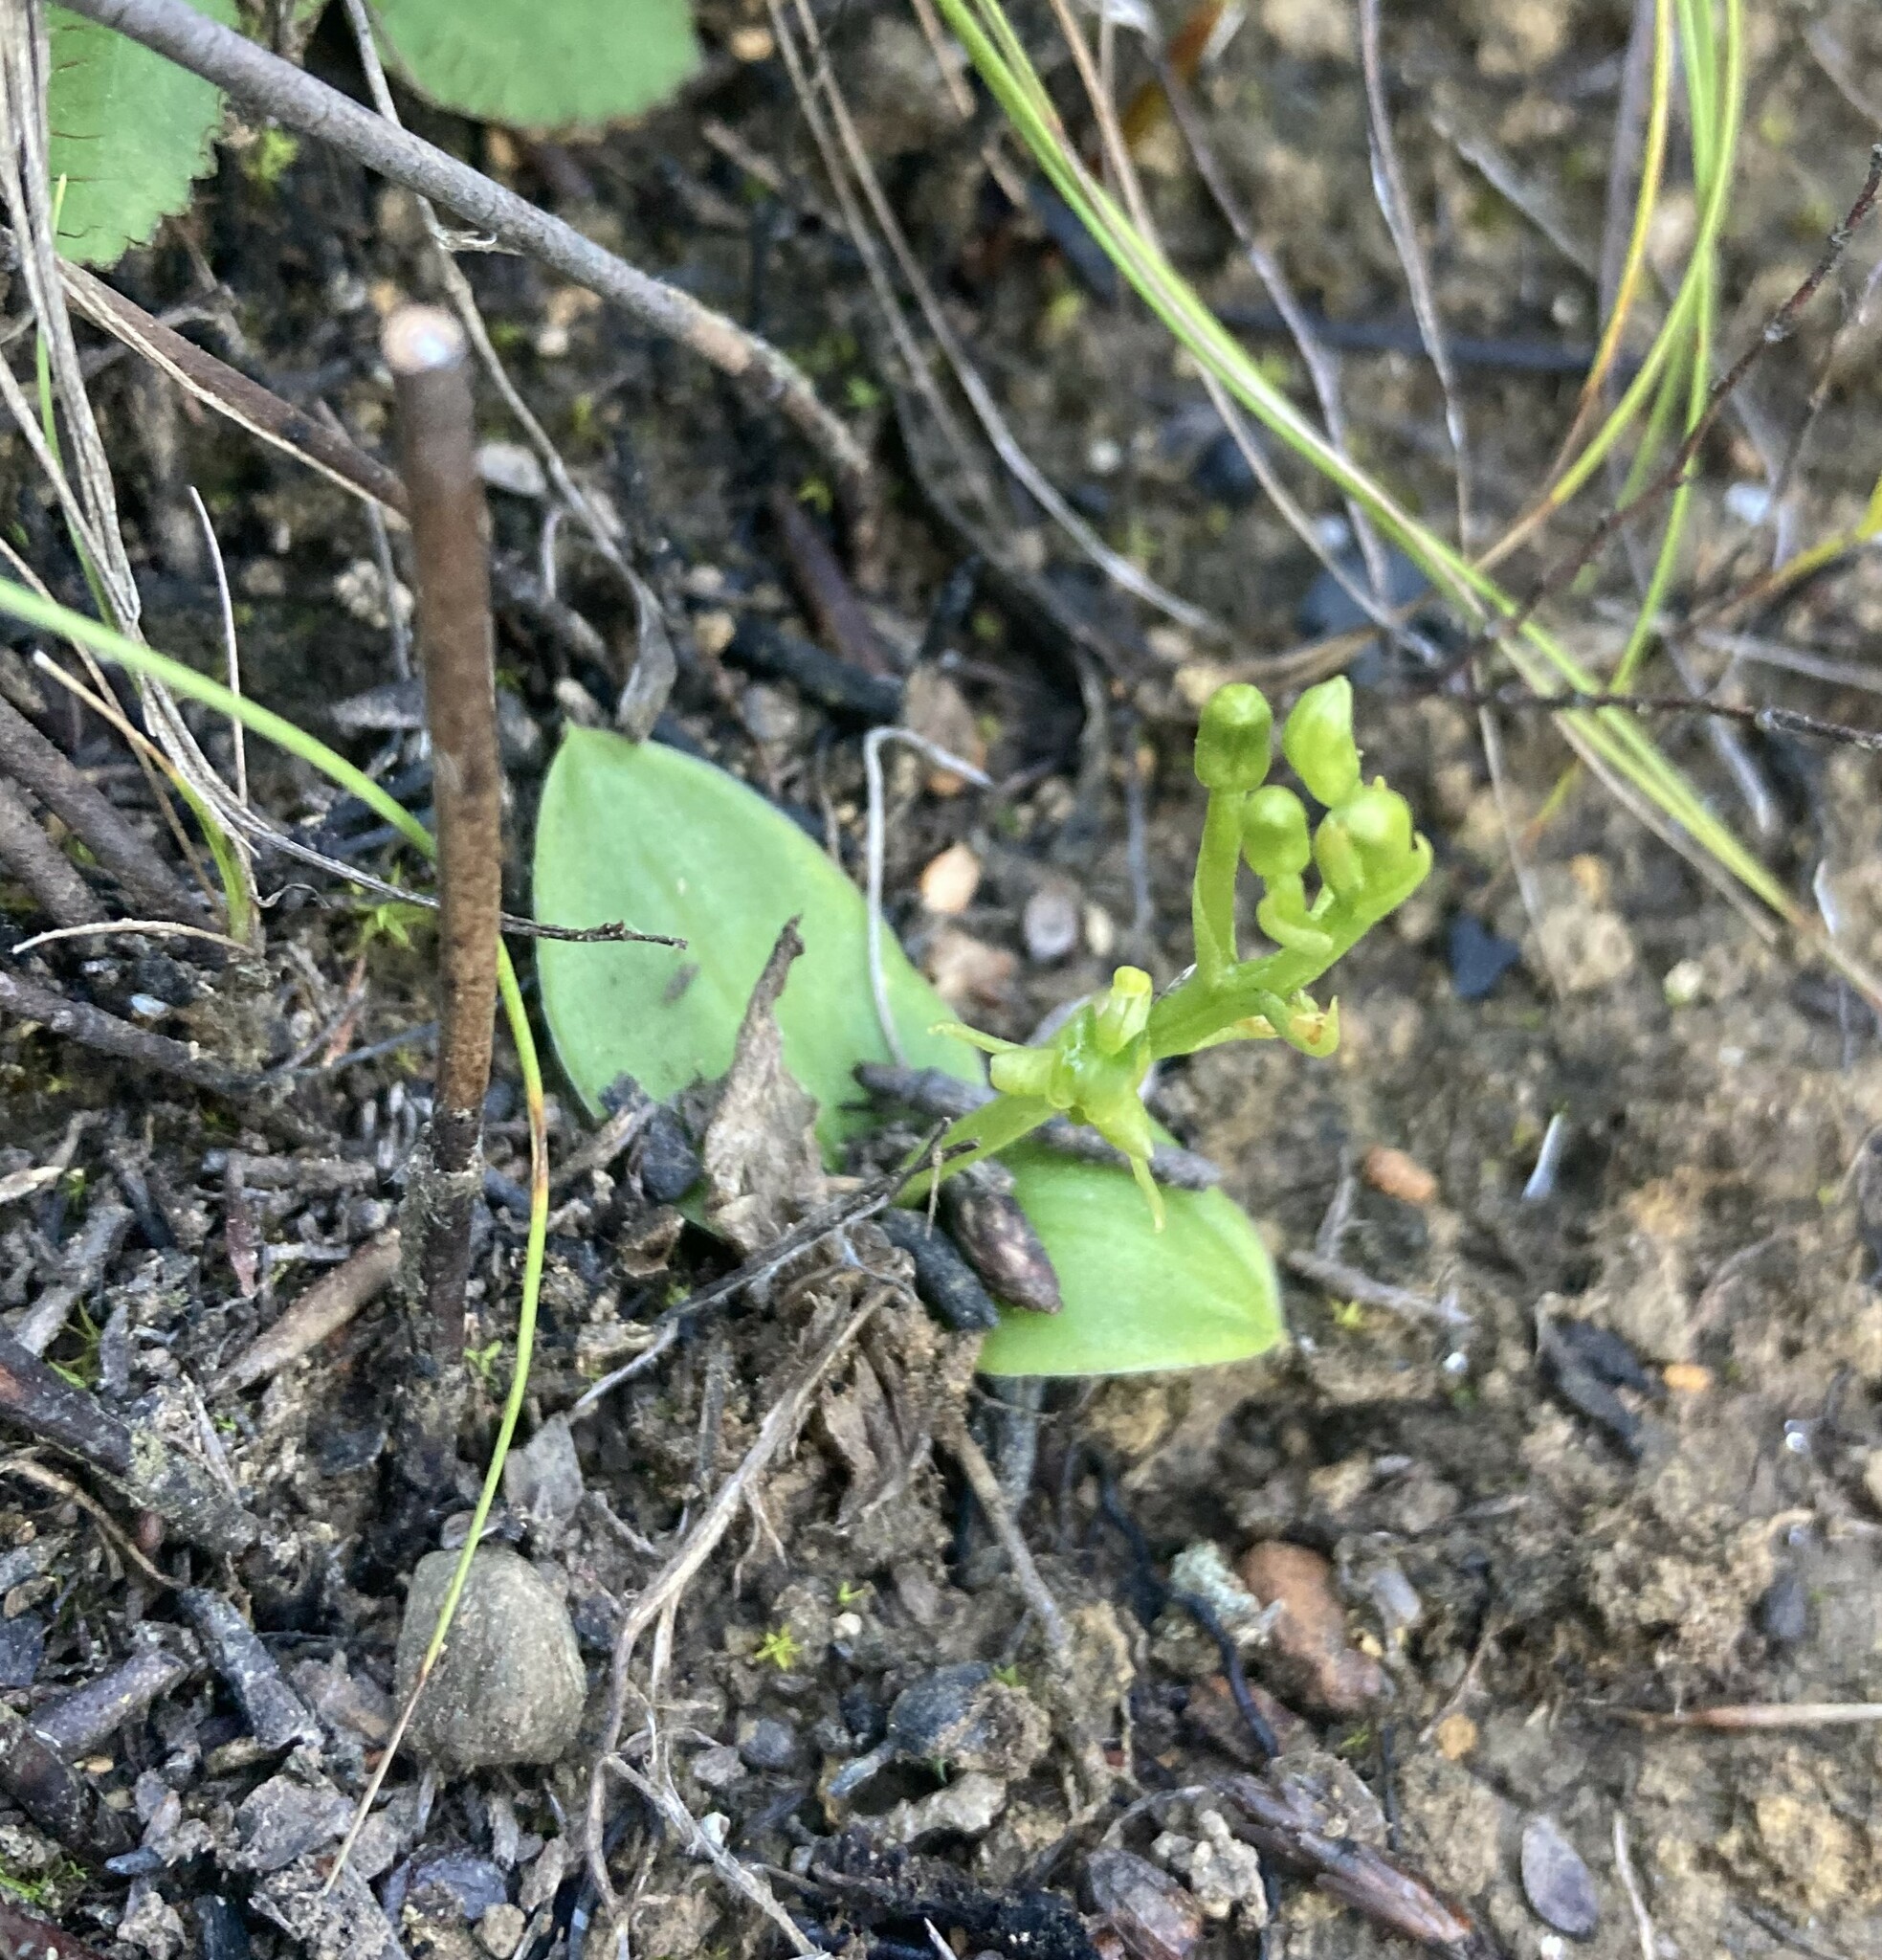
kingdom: Plantae
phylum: Tracheophyta
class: Liliopsida
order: Asparagales
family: Orchidaceae
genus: Liparis
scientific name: Liparis capensis
